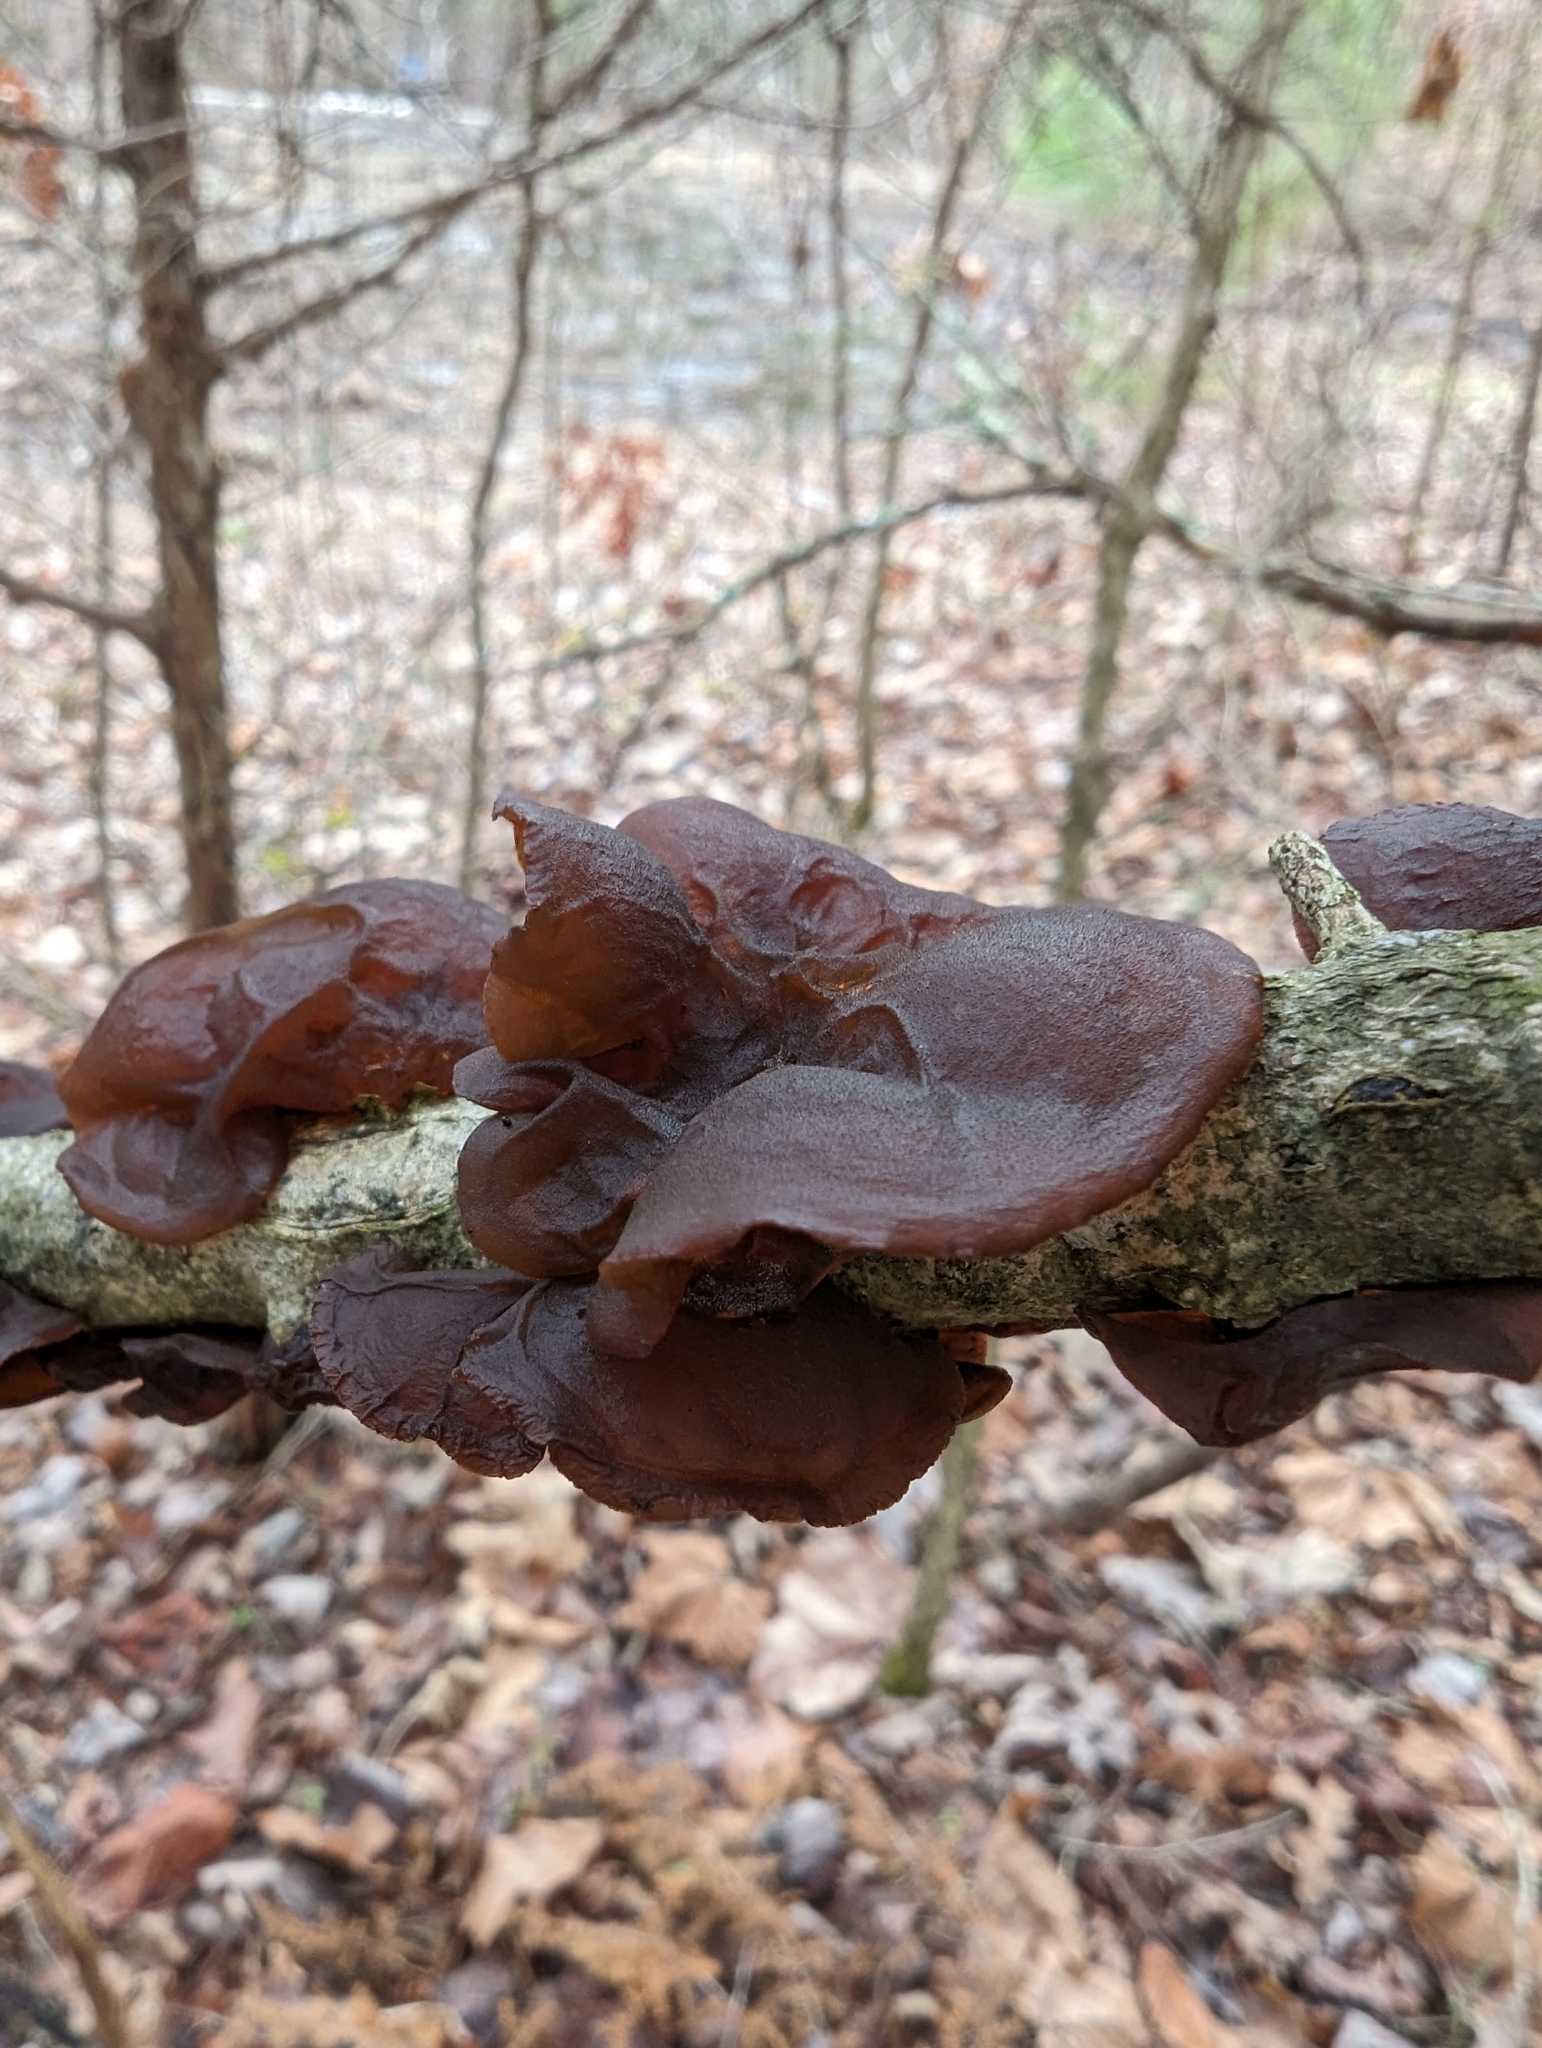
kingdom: Fungi
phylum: Basidiomycota
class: Agaricomycetes
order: Auriculariales
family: Auriculariaceae
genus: Exidia
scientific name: Exidia
